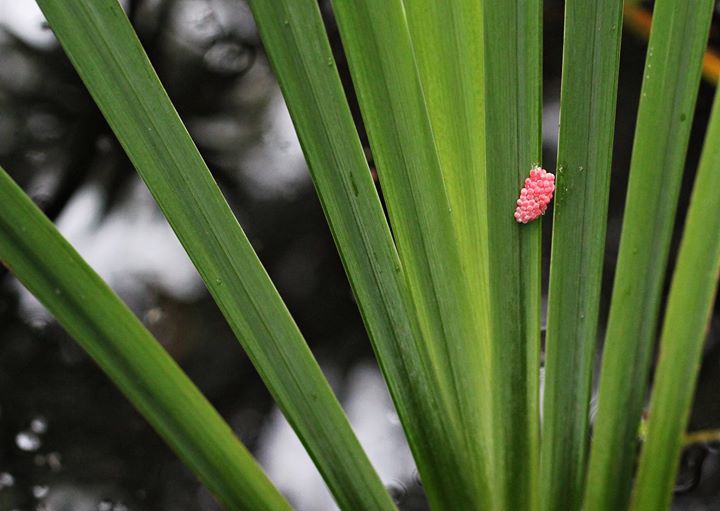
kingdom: Animalia
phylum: Mollusca
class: Gastropoda
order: Architaenioglossa
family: Ampullariidae
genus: Pomacea
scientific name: Pomacea canaliculata
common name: Channeled applesnail
